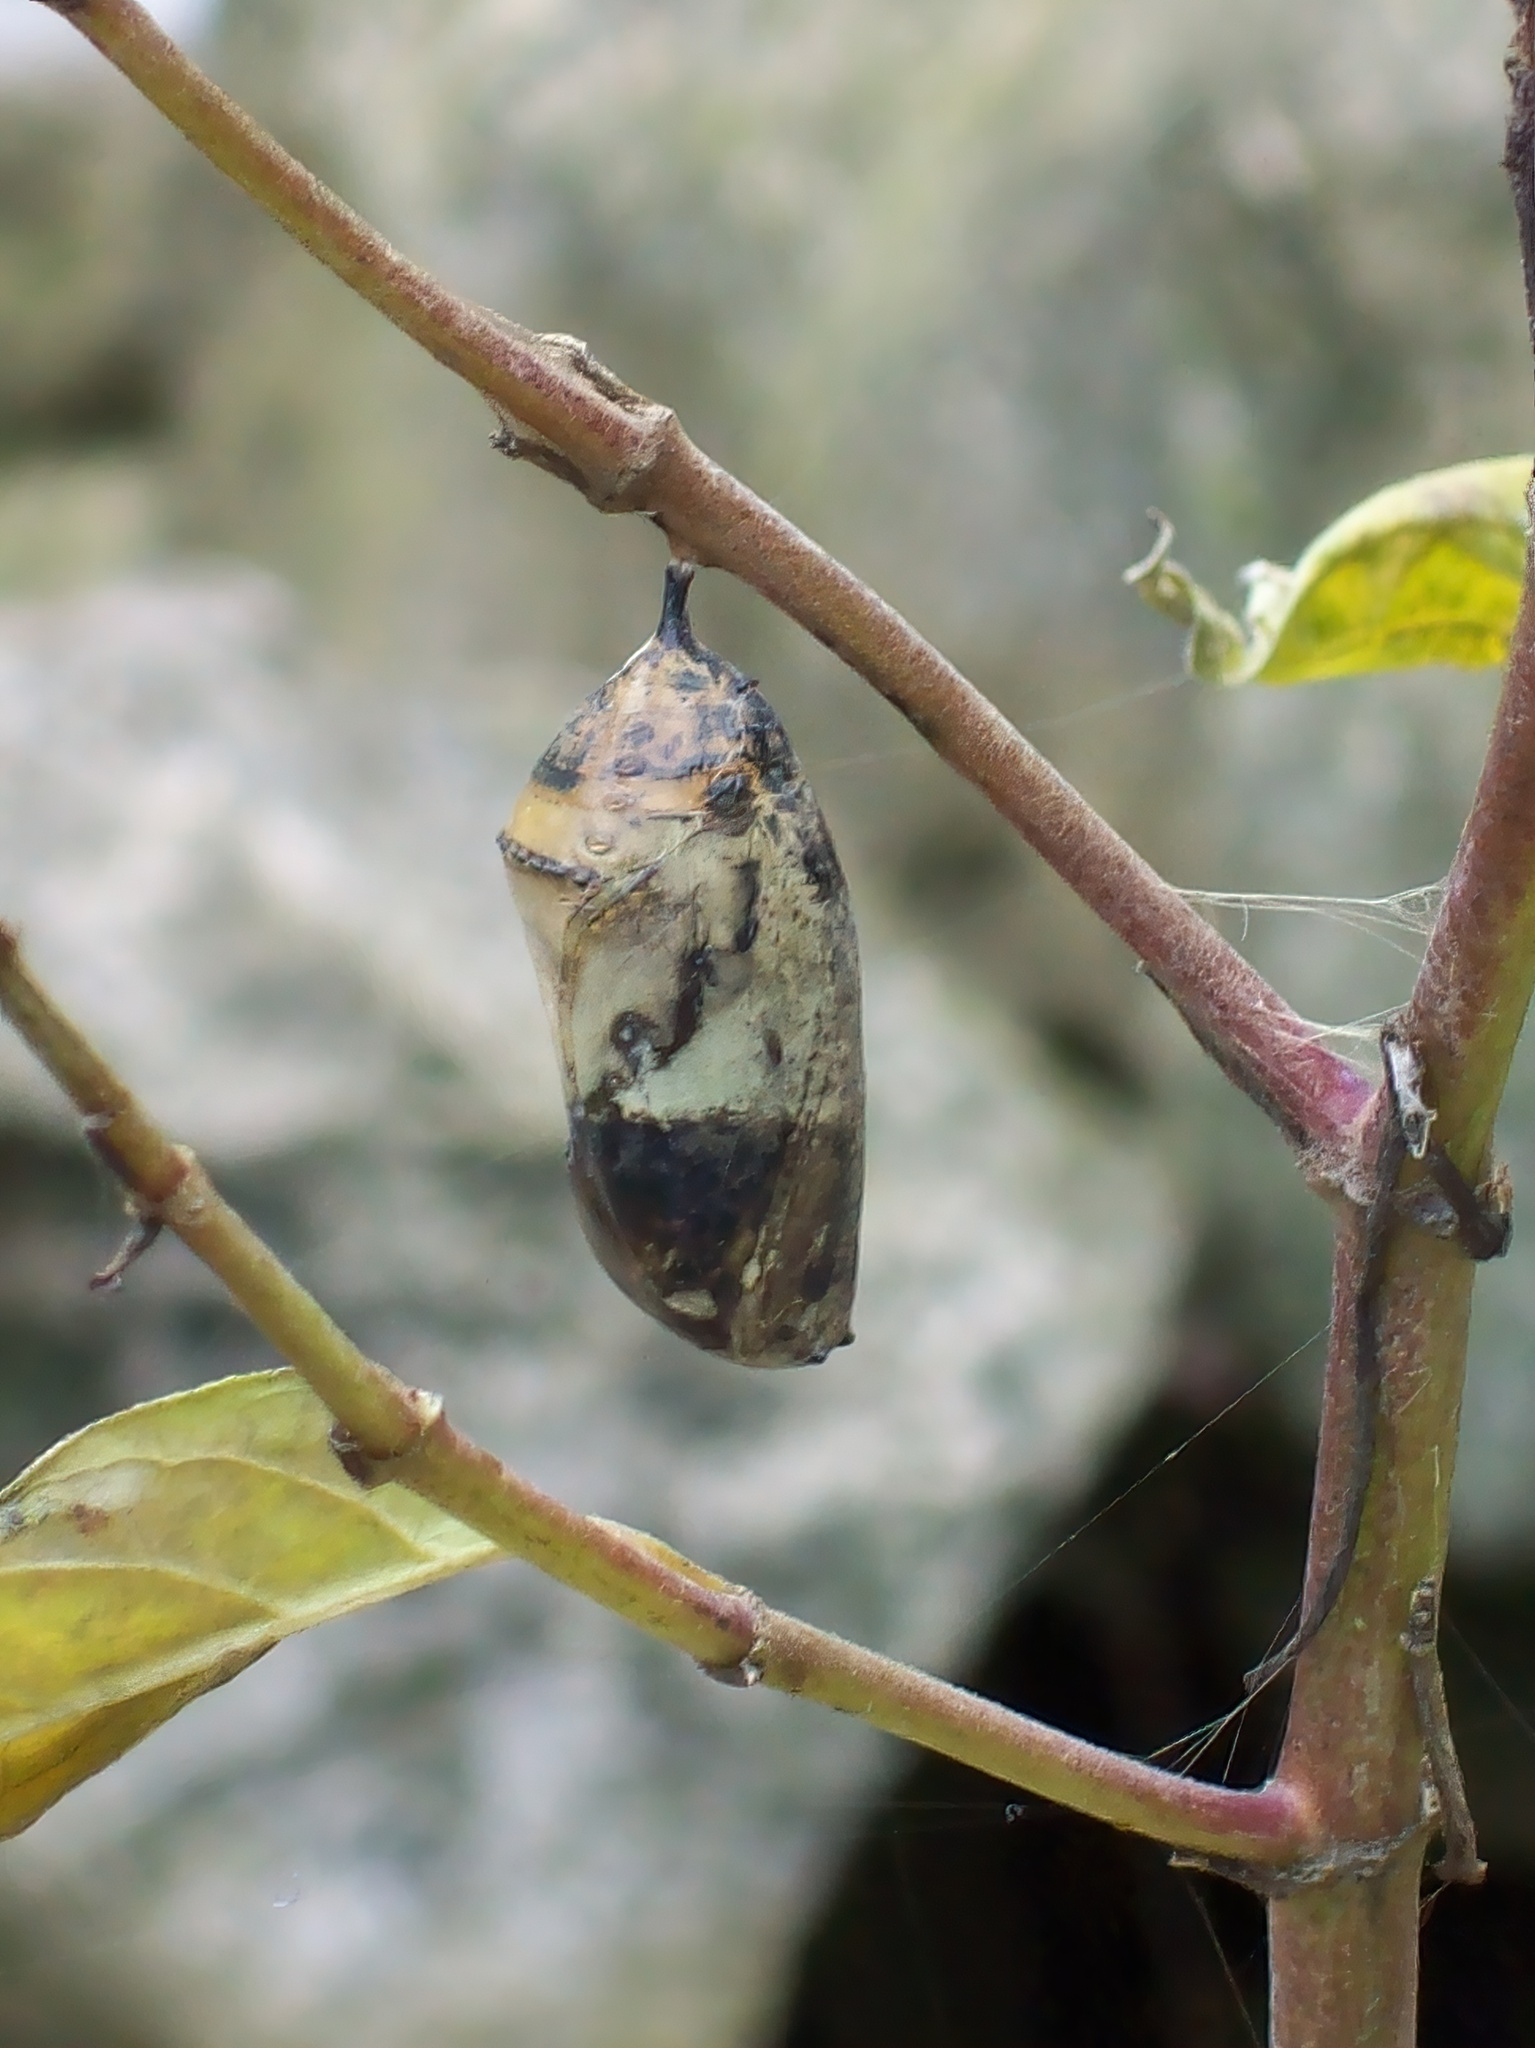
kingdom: Animalia
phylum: Arthropoda
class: Insecta
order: Lepidoptera
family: Nymphalidae
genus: Danaus
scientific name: Danaus plexippus
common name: Monarch
